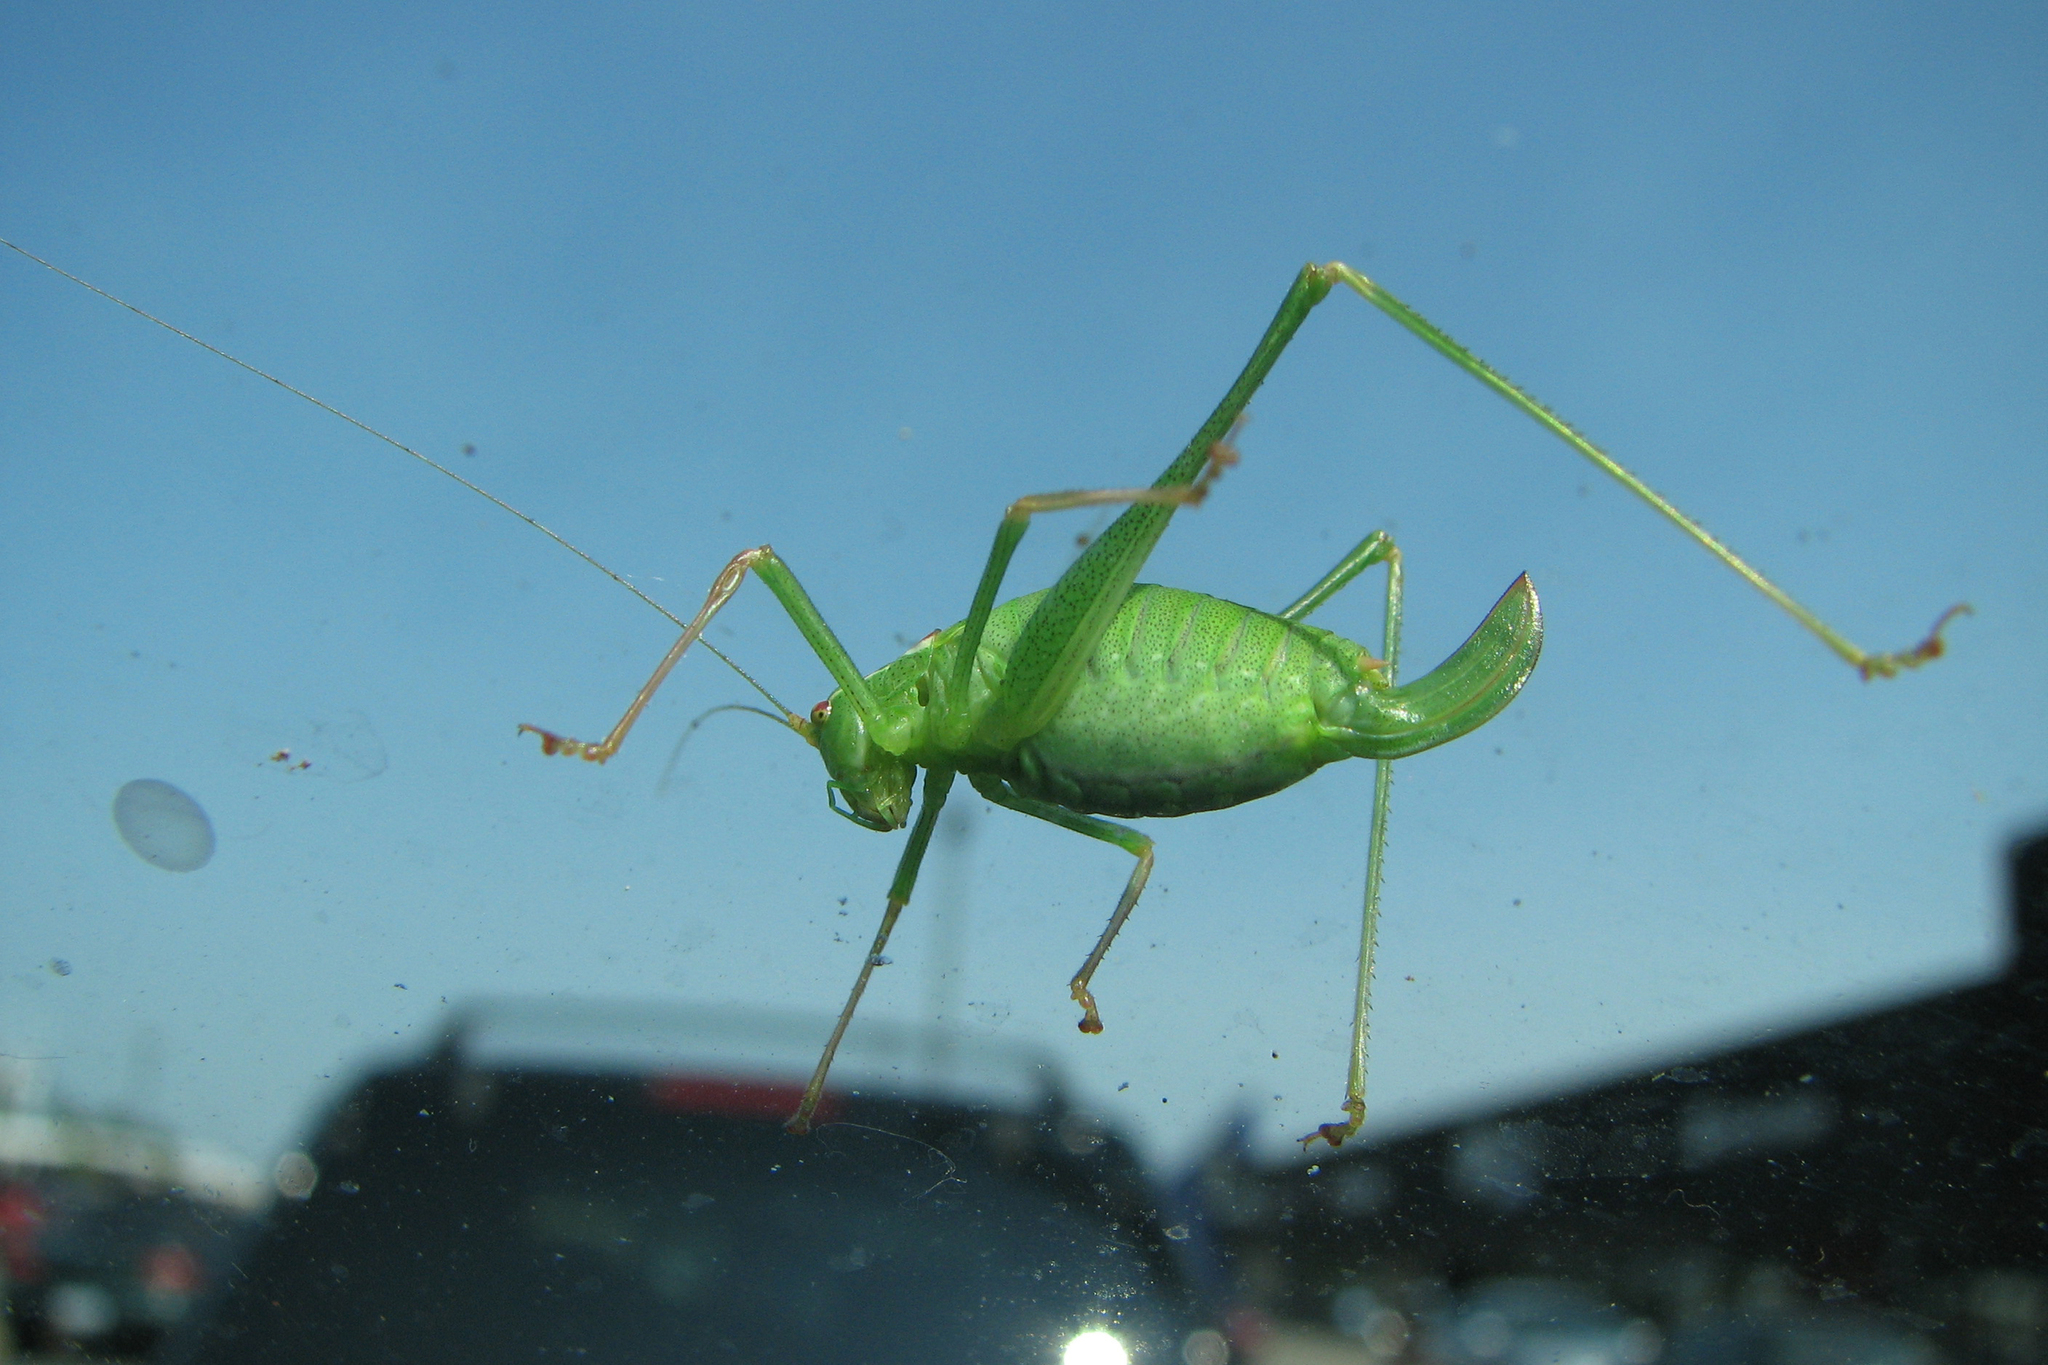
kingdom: Animalia
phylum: Arthropoda
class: Insecta
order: Orthoptera
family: Tettigoniidae
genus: Leptophyes
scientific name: Leptophyes punctatissima
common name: Speckled bush-cricket
